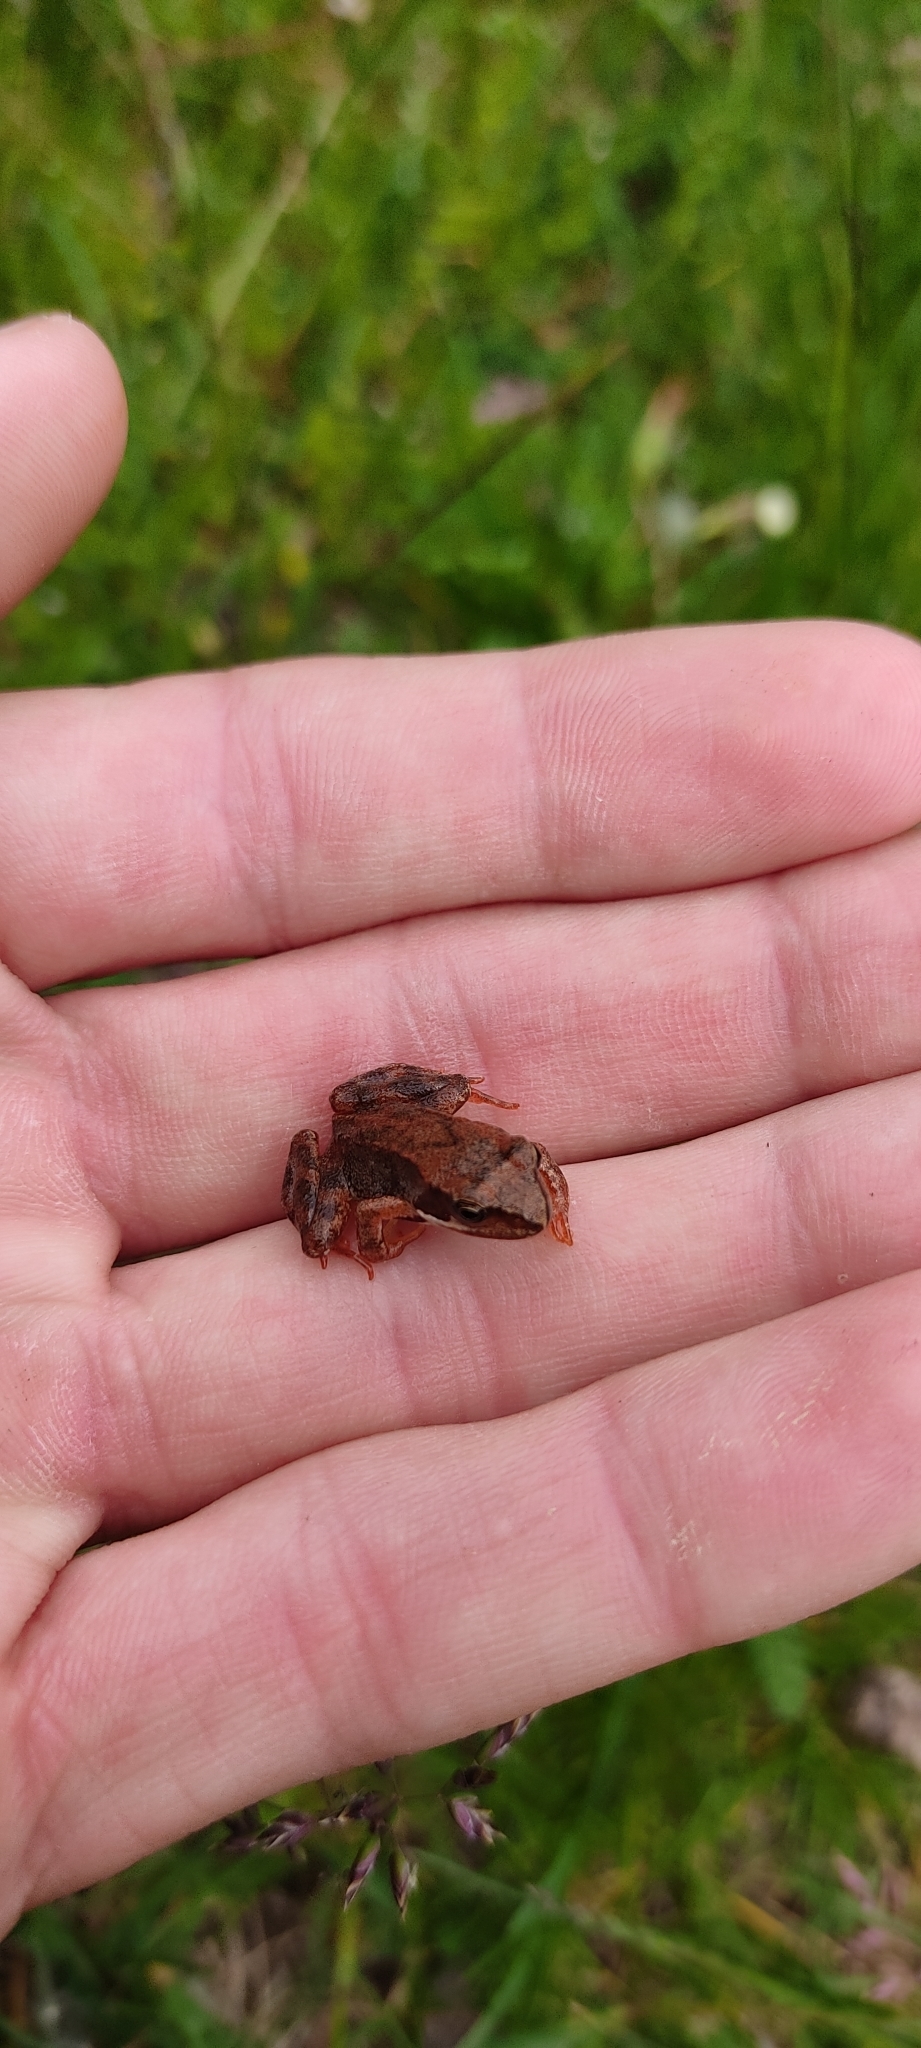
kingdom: Animalia
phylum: Chordata
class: Amphibia
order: Anura
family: Ranidae
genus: Rana
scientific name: Rana temporaria
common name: Common frog
